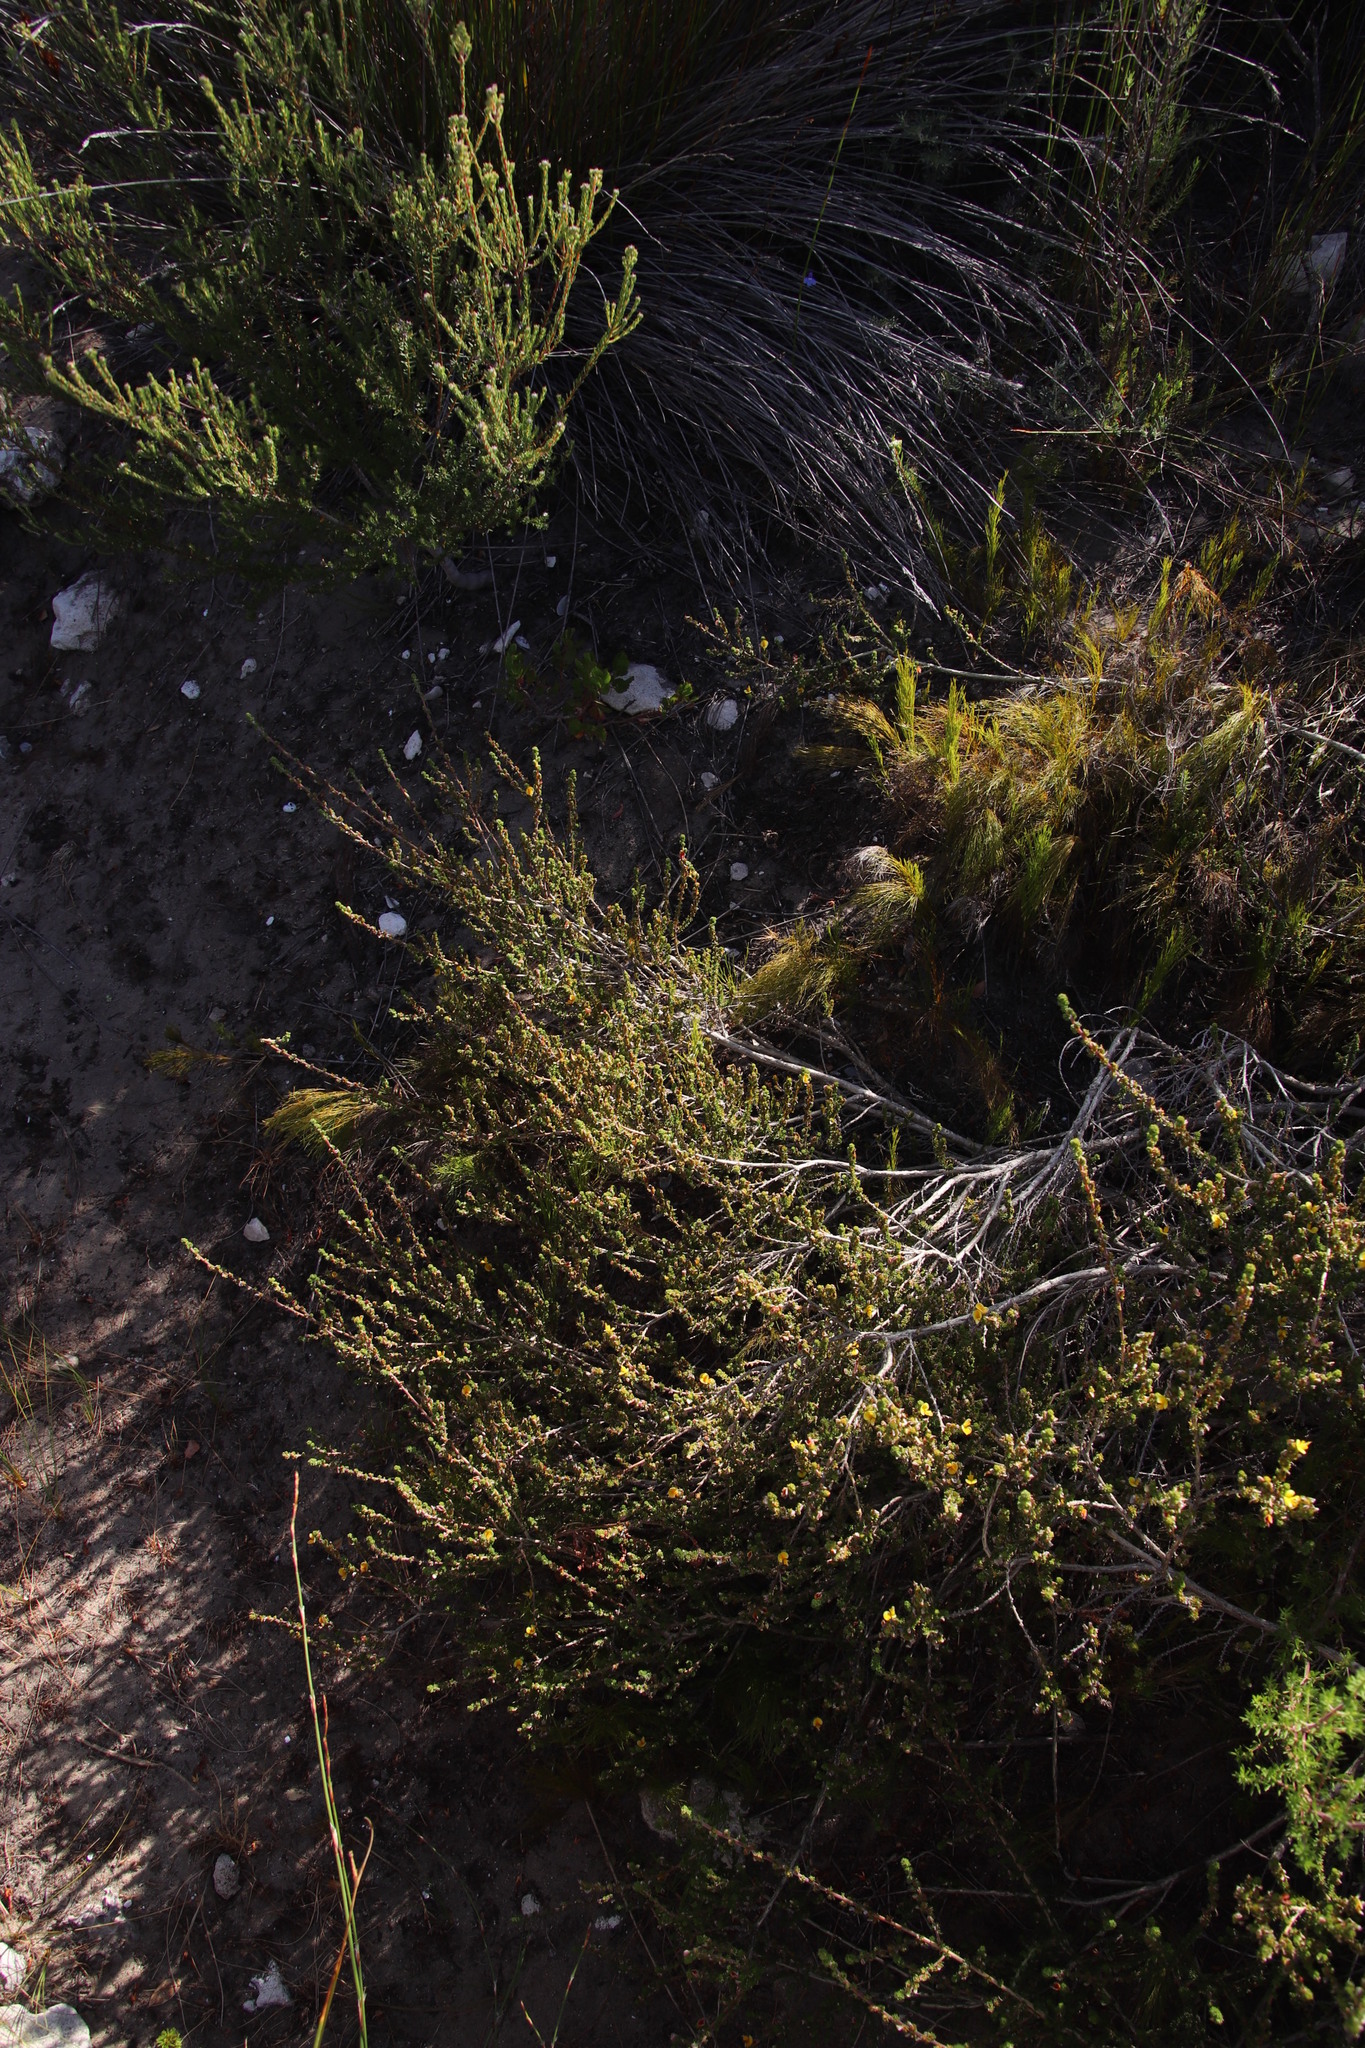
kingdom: Plantae
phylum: Tracheophyta
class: Magnoliopsida
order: Fabales
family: Fabaceae
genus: Aspalathus
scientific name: Aspalathus salteri
